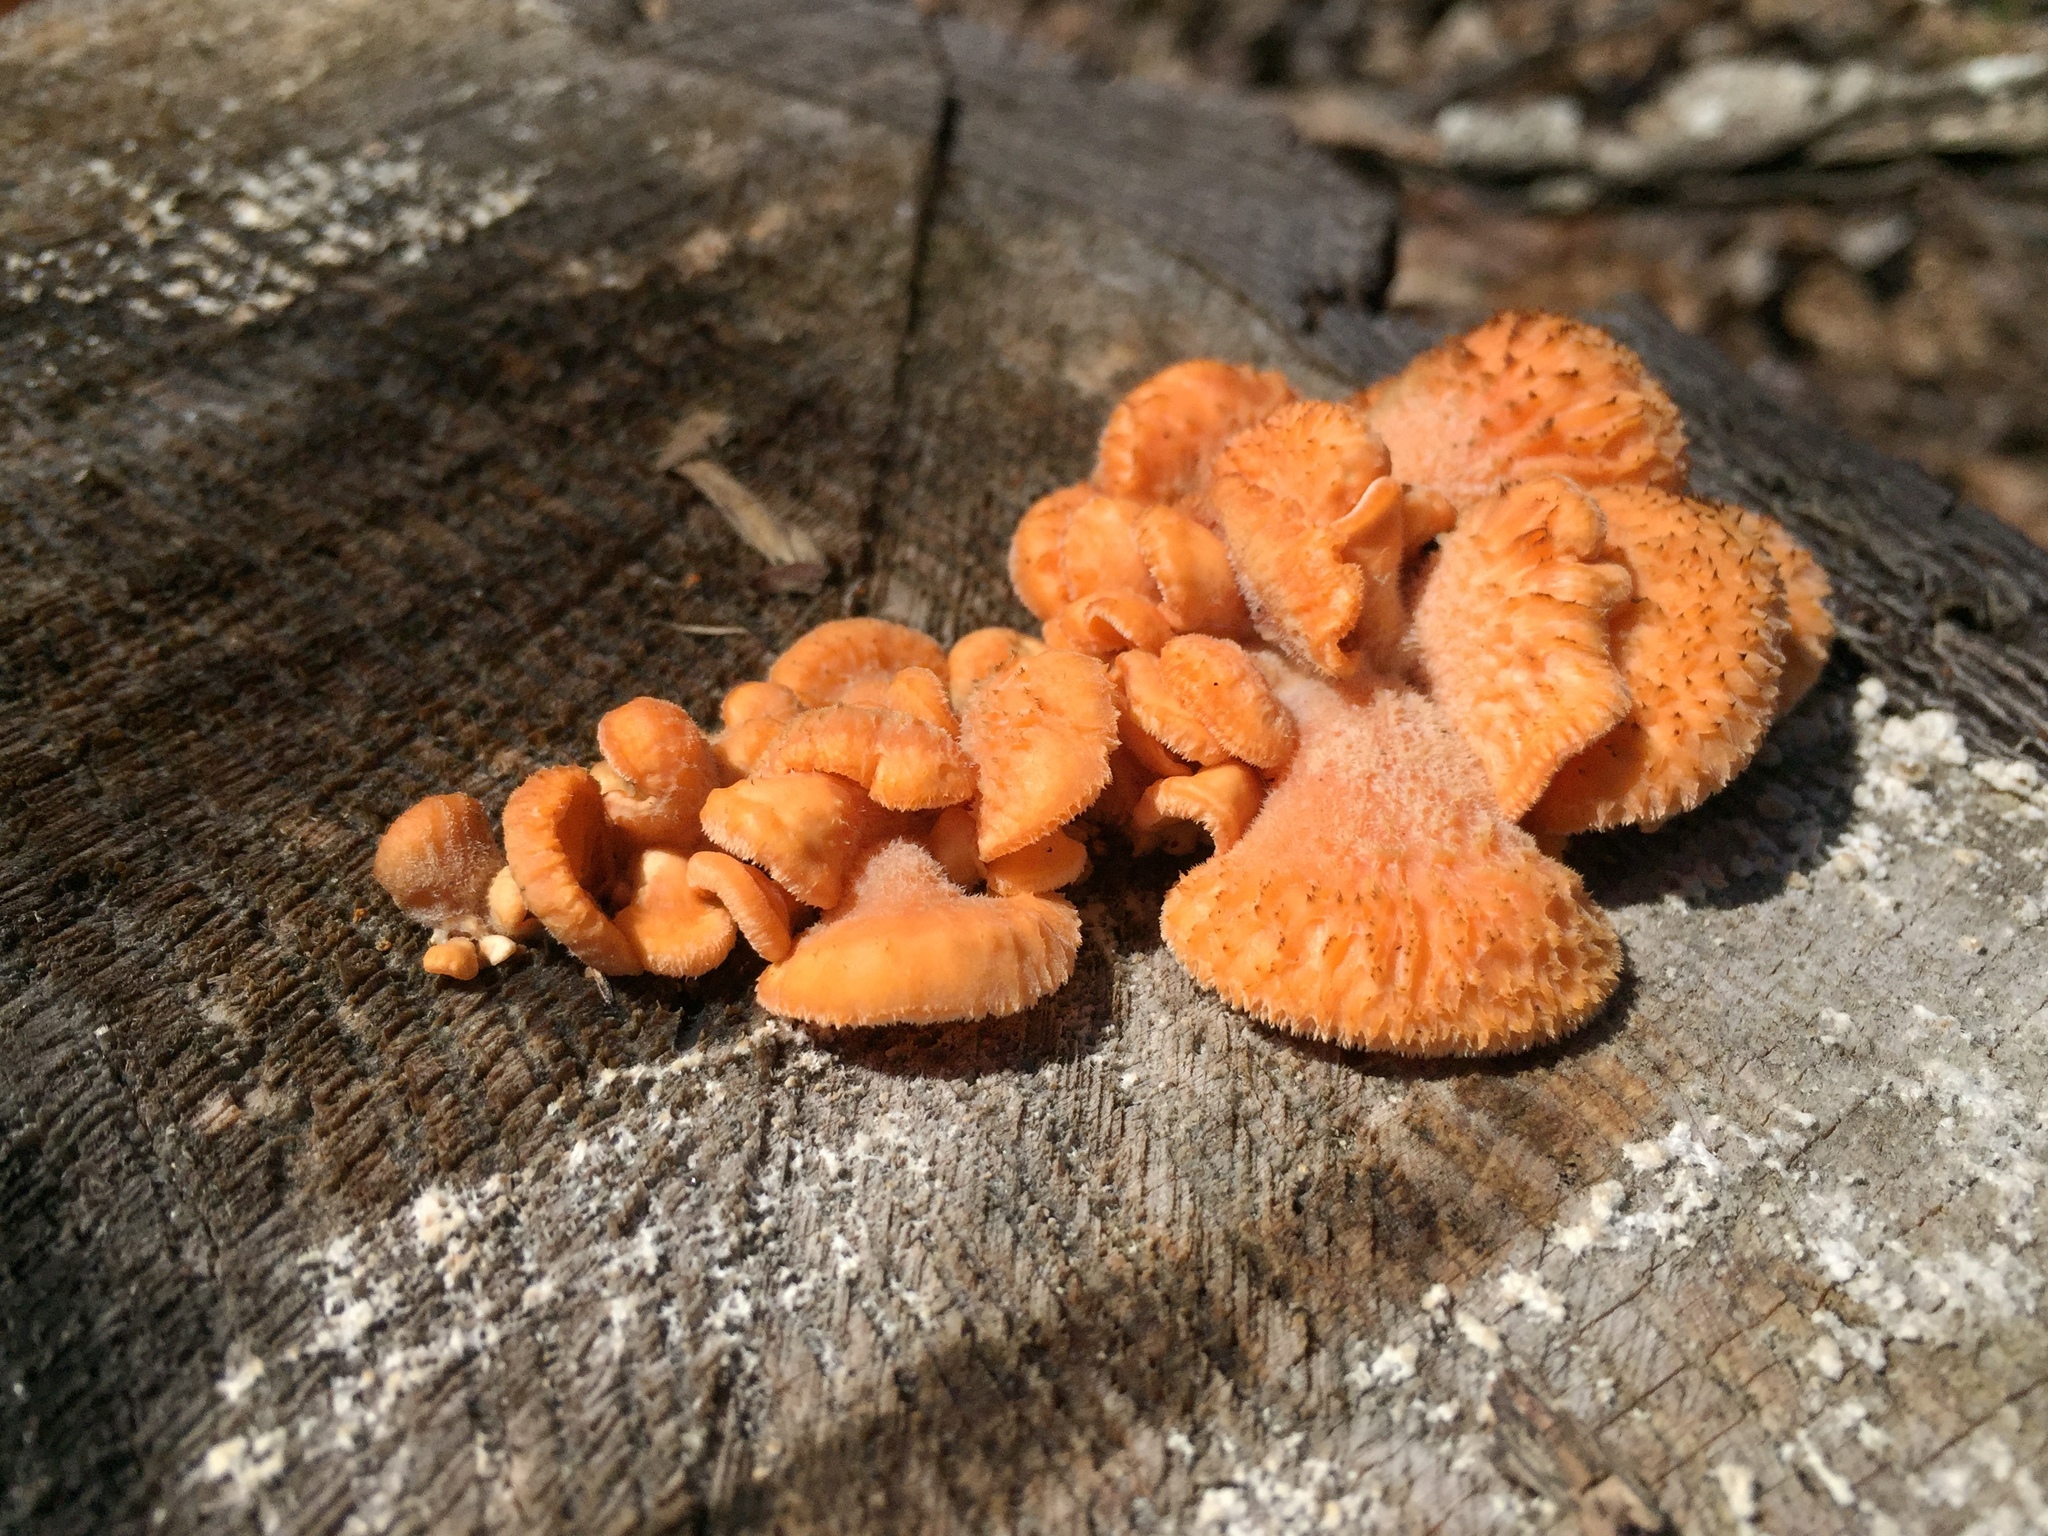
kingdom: Fungi
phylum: Basidiomycota
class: Agaricomycetes
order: Agaricales
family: Phyllotopsidaceae
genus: Phyllotopsis
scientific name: Phyllotopsis nidulans
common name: Orange mock oyster
